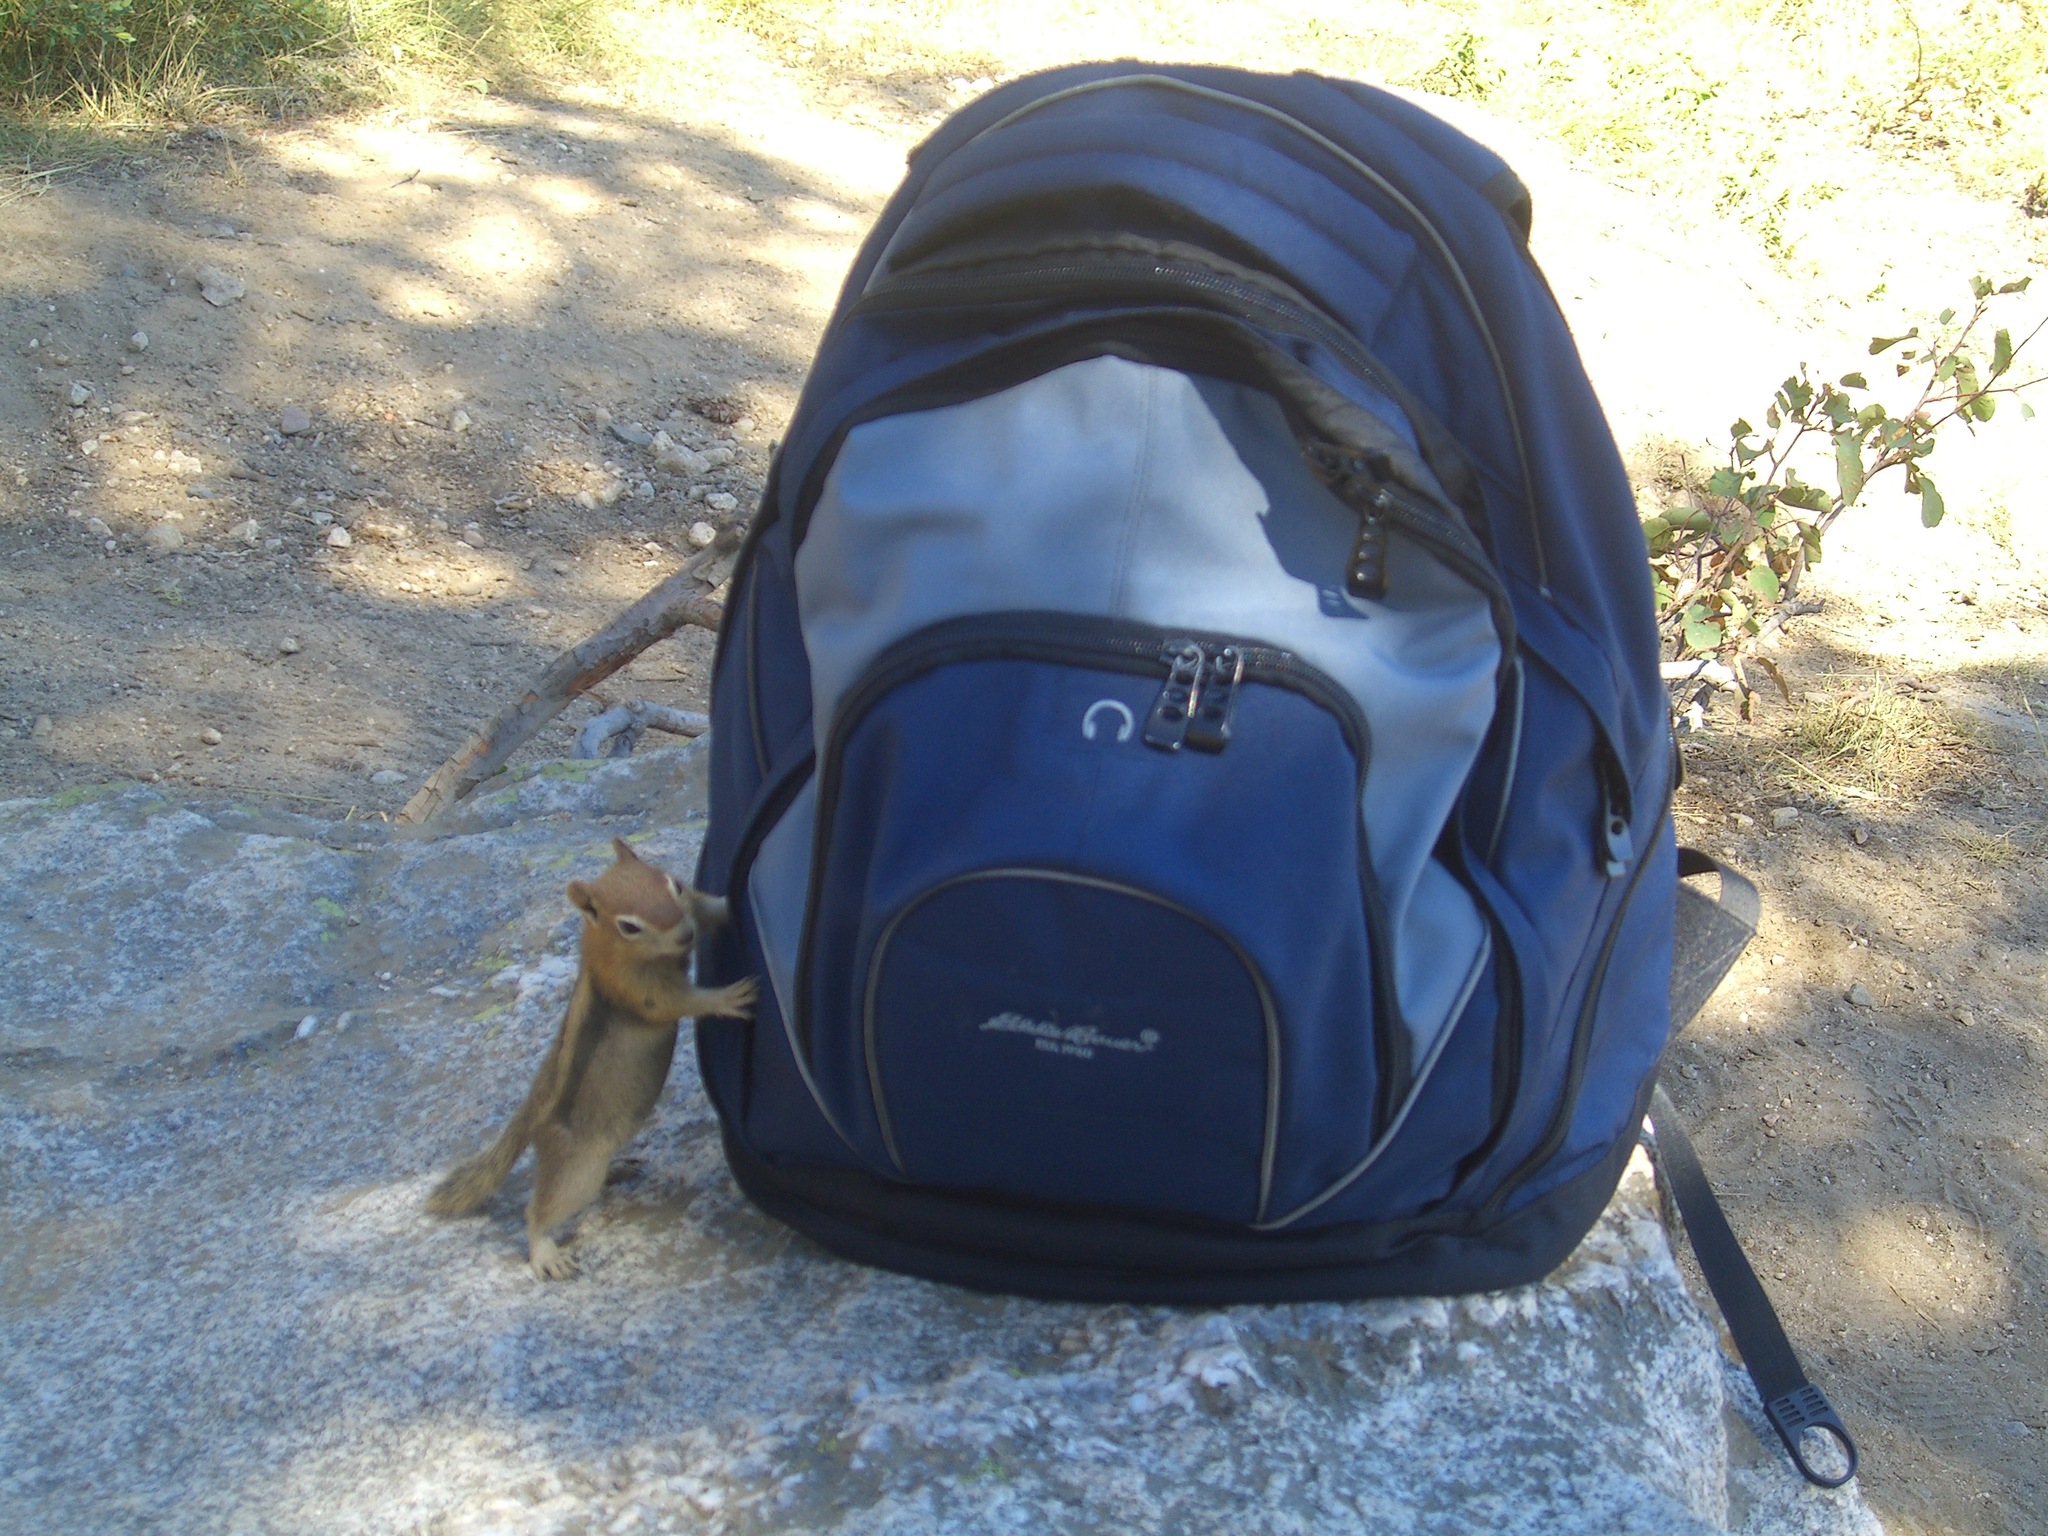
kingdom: Animalia
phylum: Chordata
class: Mammalia
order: Rodentia
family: Sciuridae
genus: Callospermophilus
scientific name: Callospermophilus lateralis
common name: Golden-mantled ground squirrel
